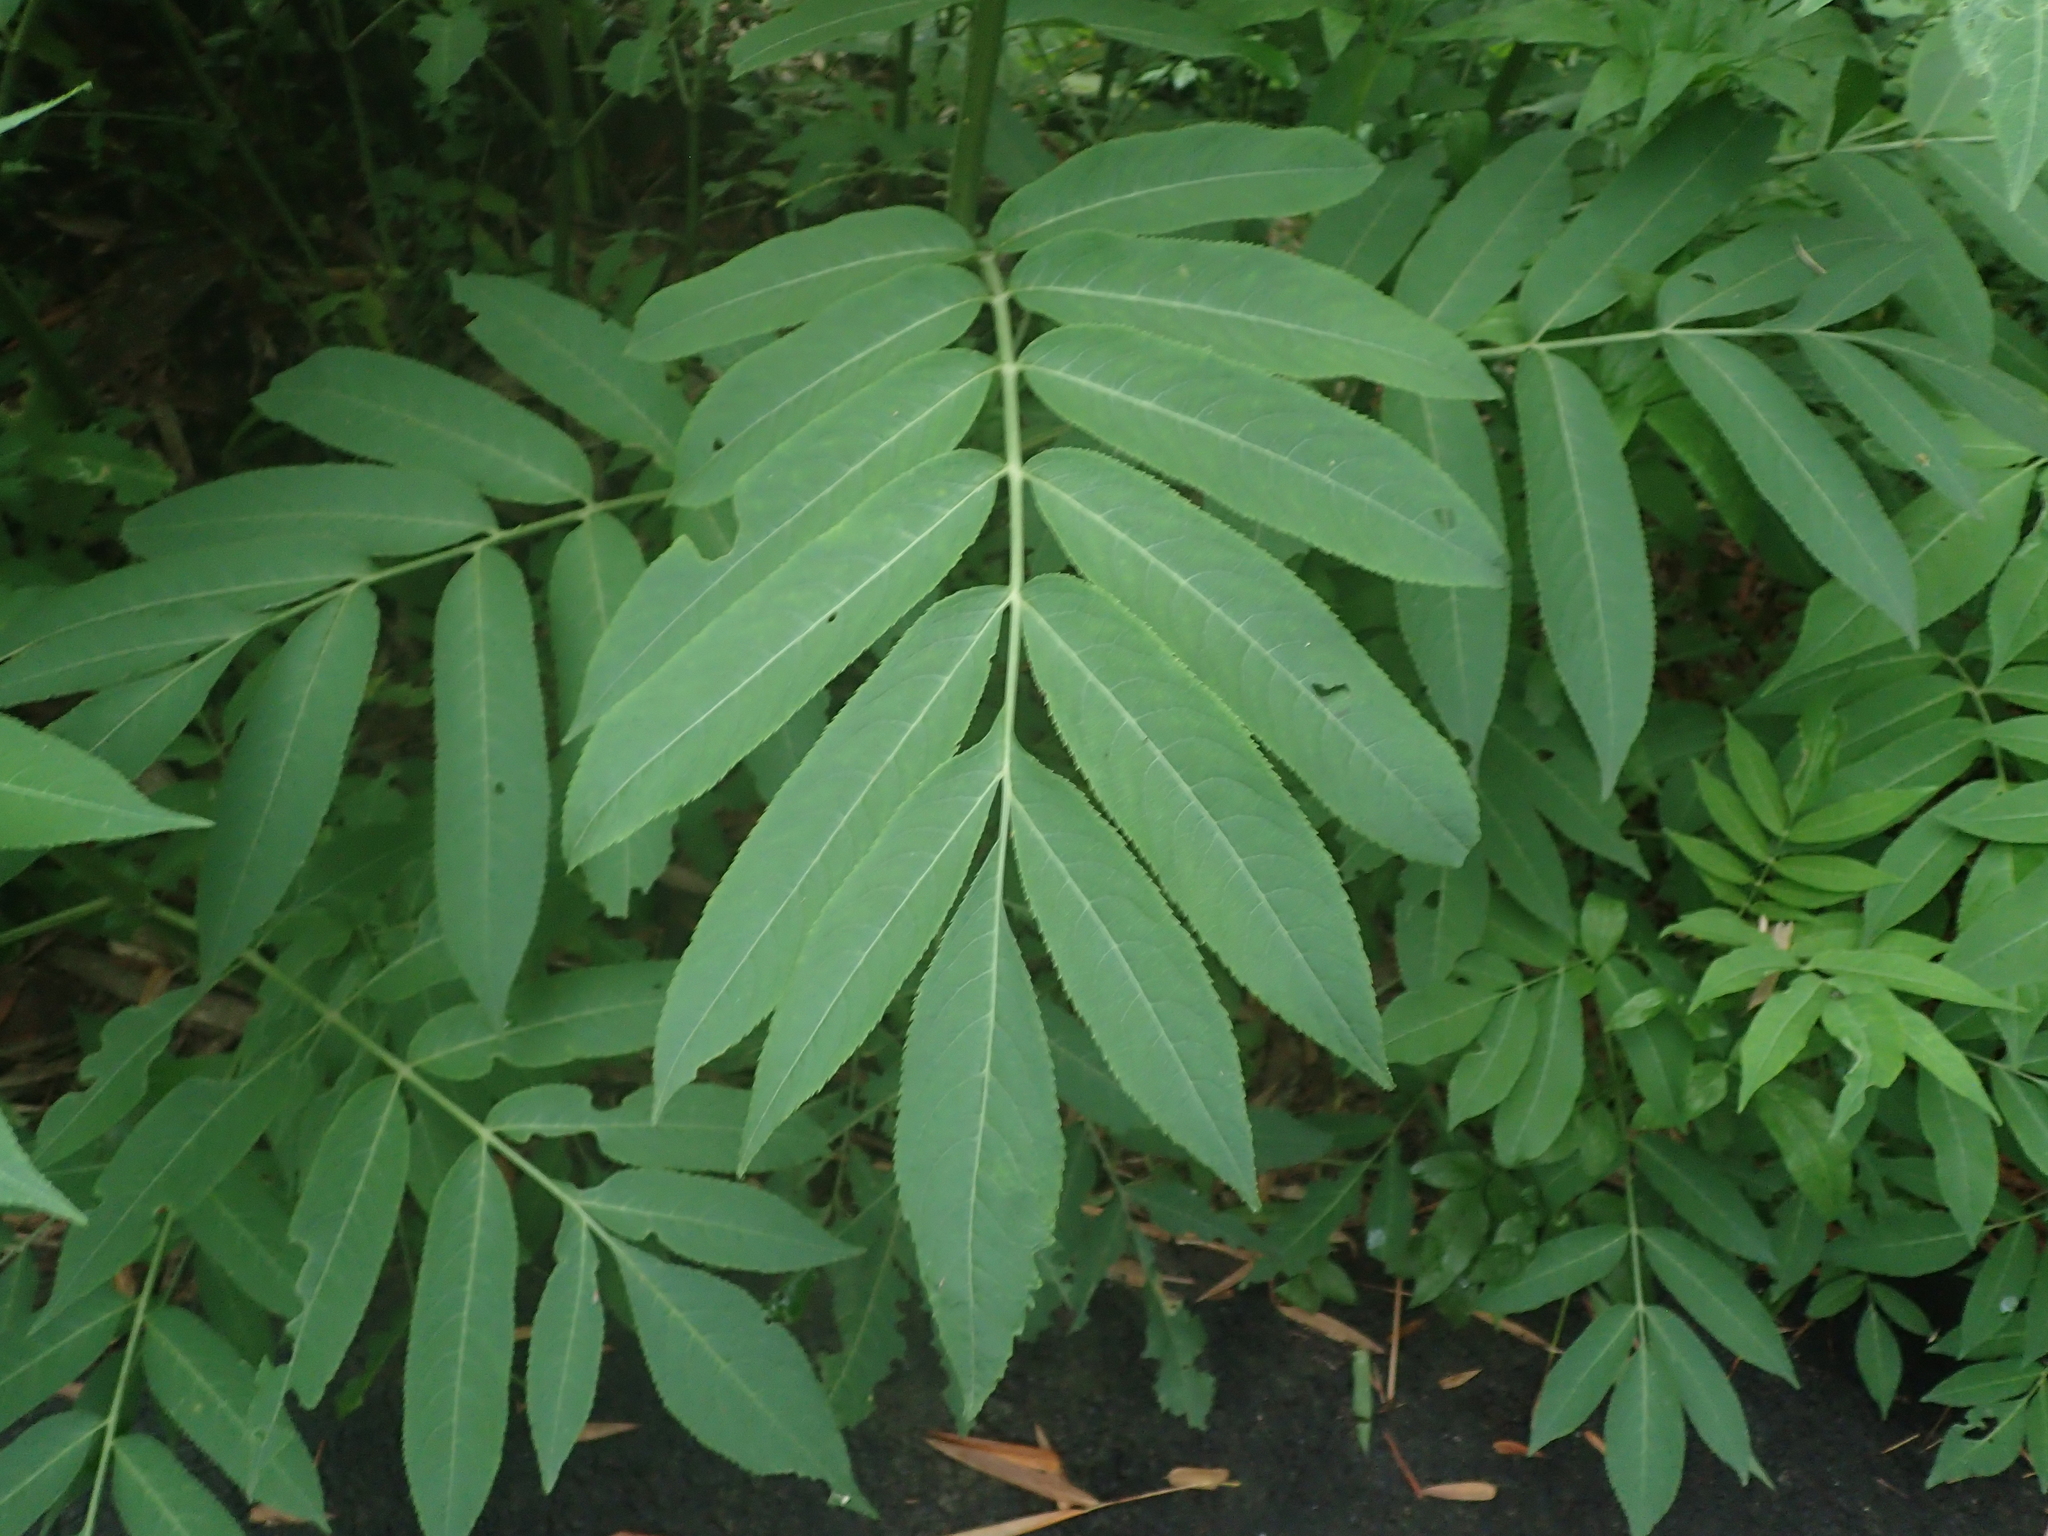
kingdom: Plantae
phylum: Tracheophyta
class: Magnoliopsida
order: Dipsacales
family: Viburnaceae
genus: Sambucus
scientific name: Sambucus javanica
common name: Chinese elder
